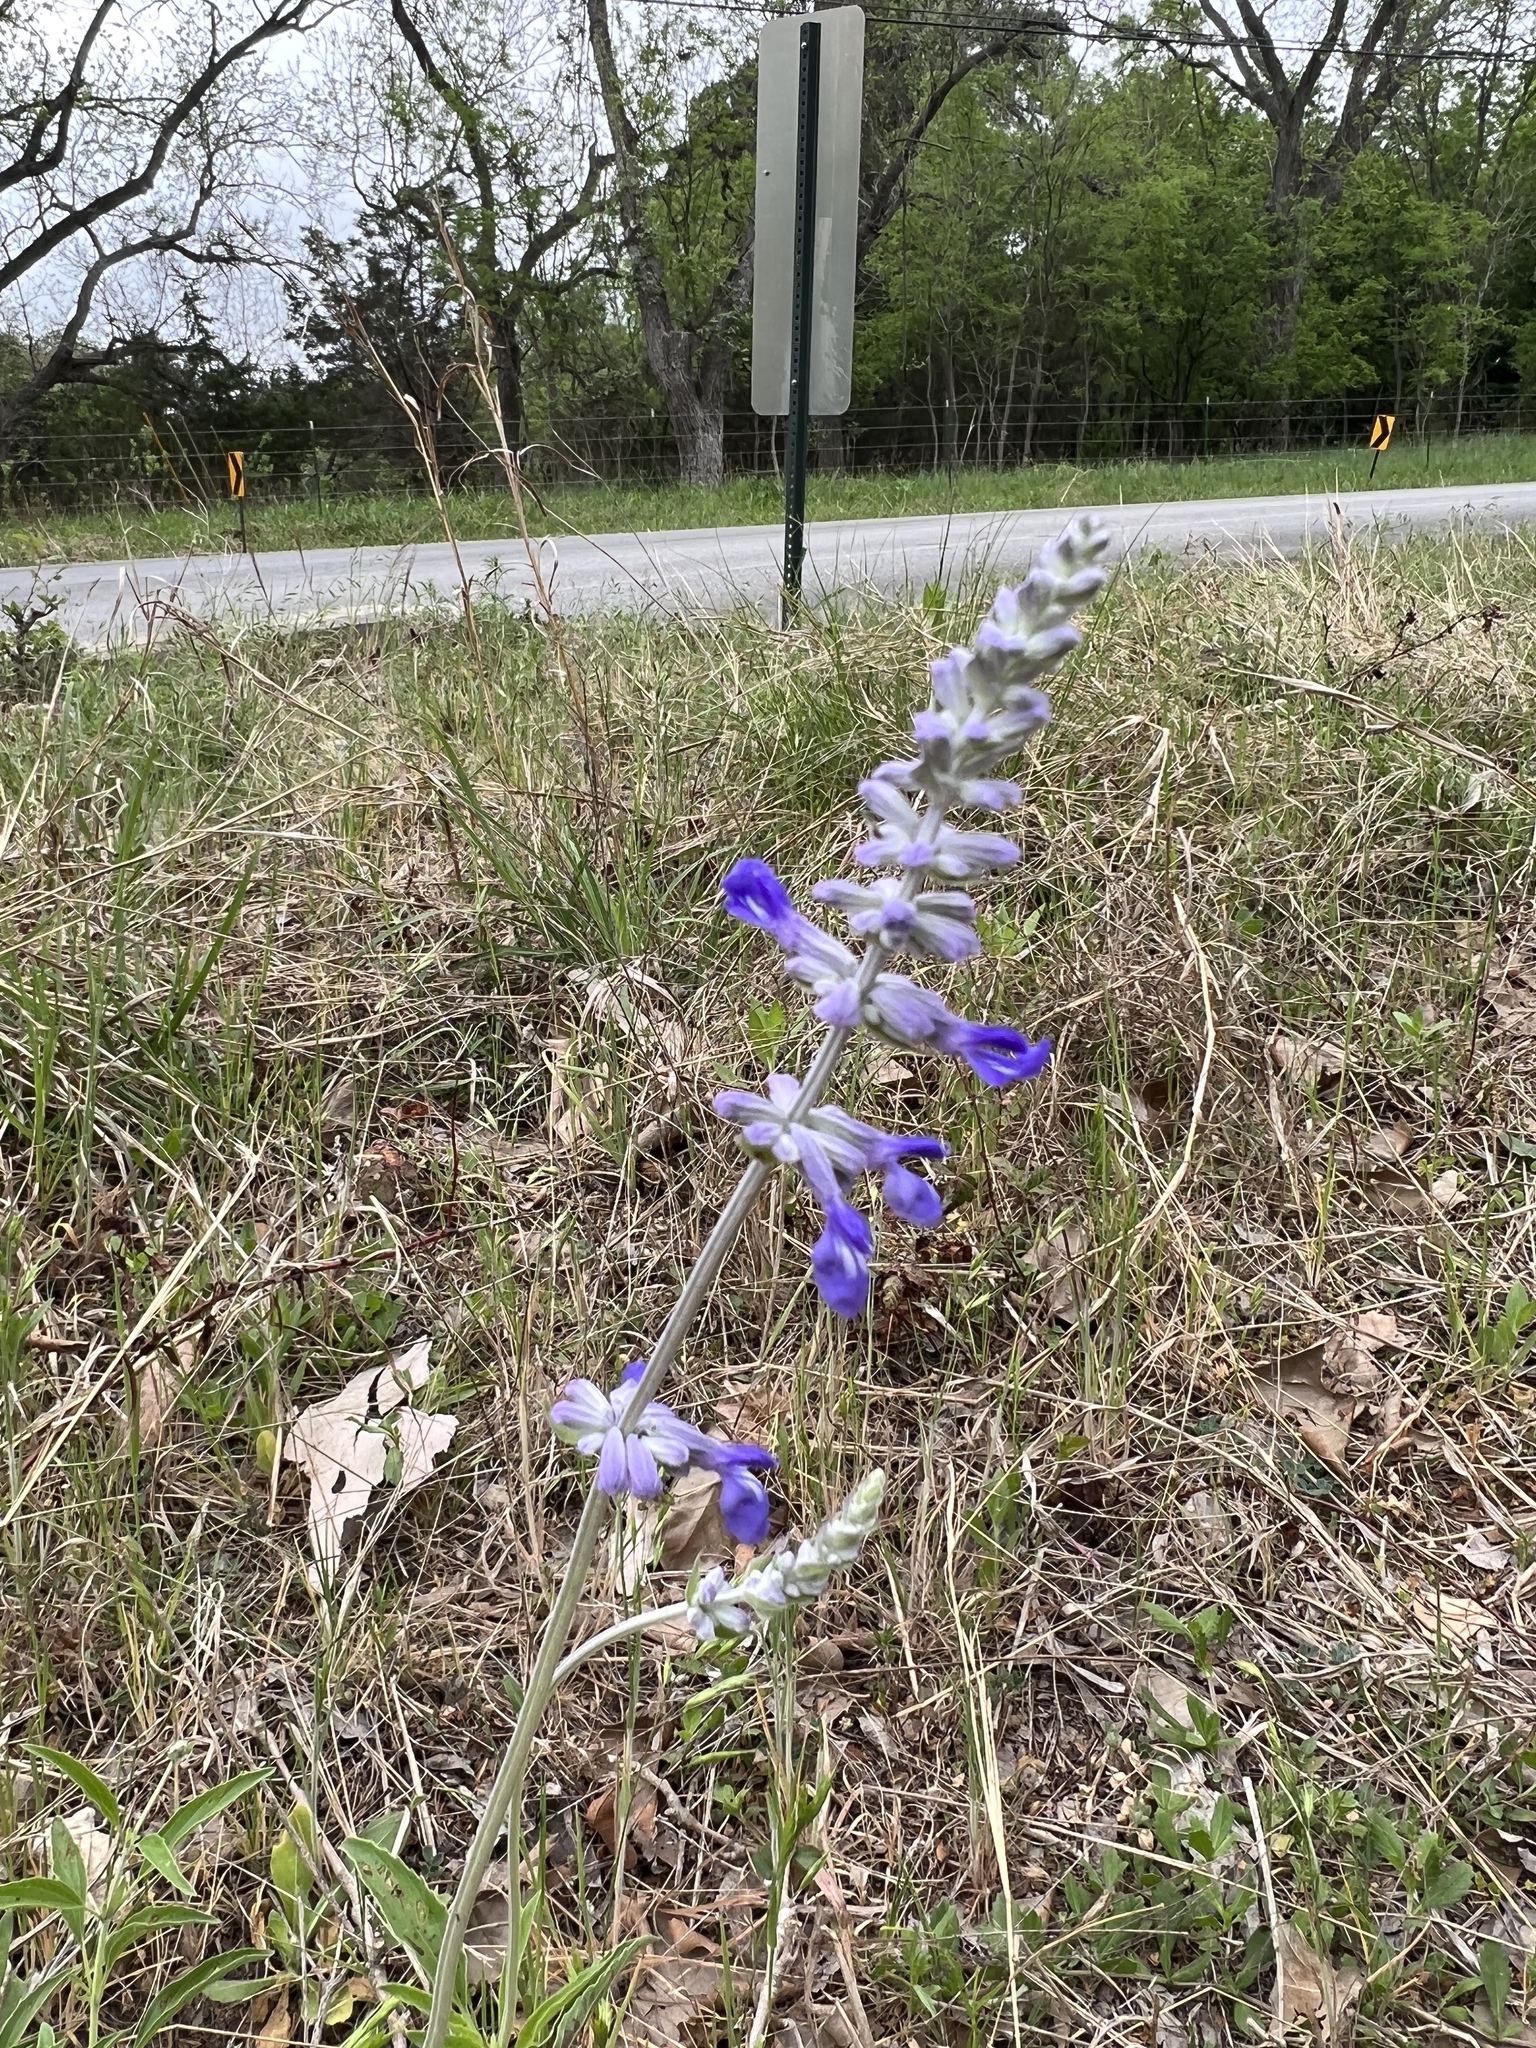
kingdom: Plantae
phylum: Tracheophyta
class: Magnoliopsida
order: Lamiales
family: Lamiaceae
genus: Salvia
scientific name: Salvia farinacea
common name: Mealy sage
